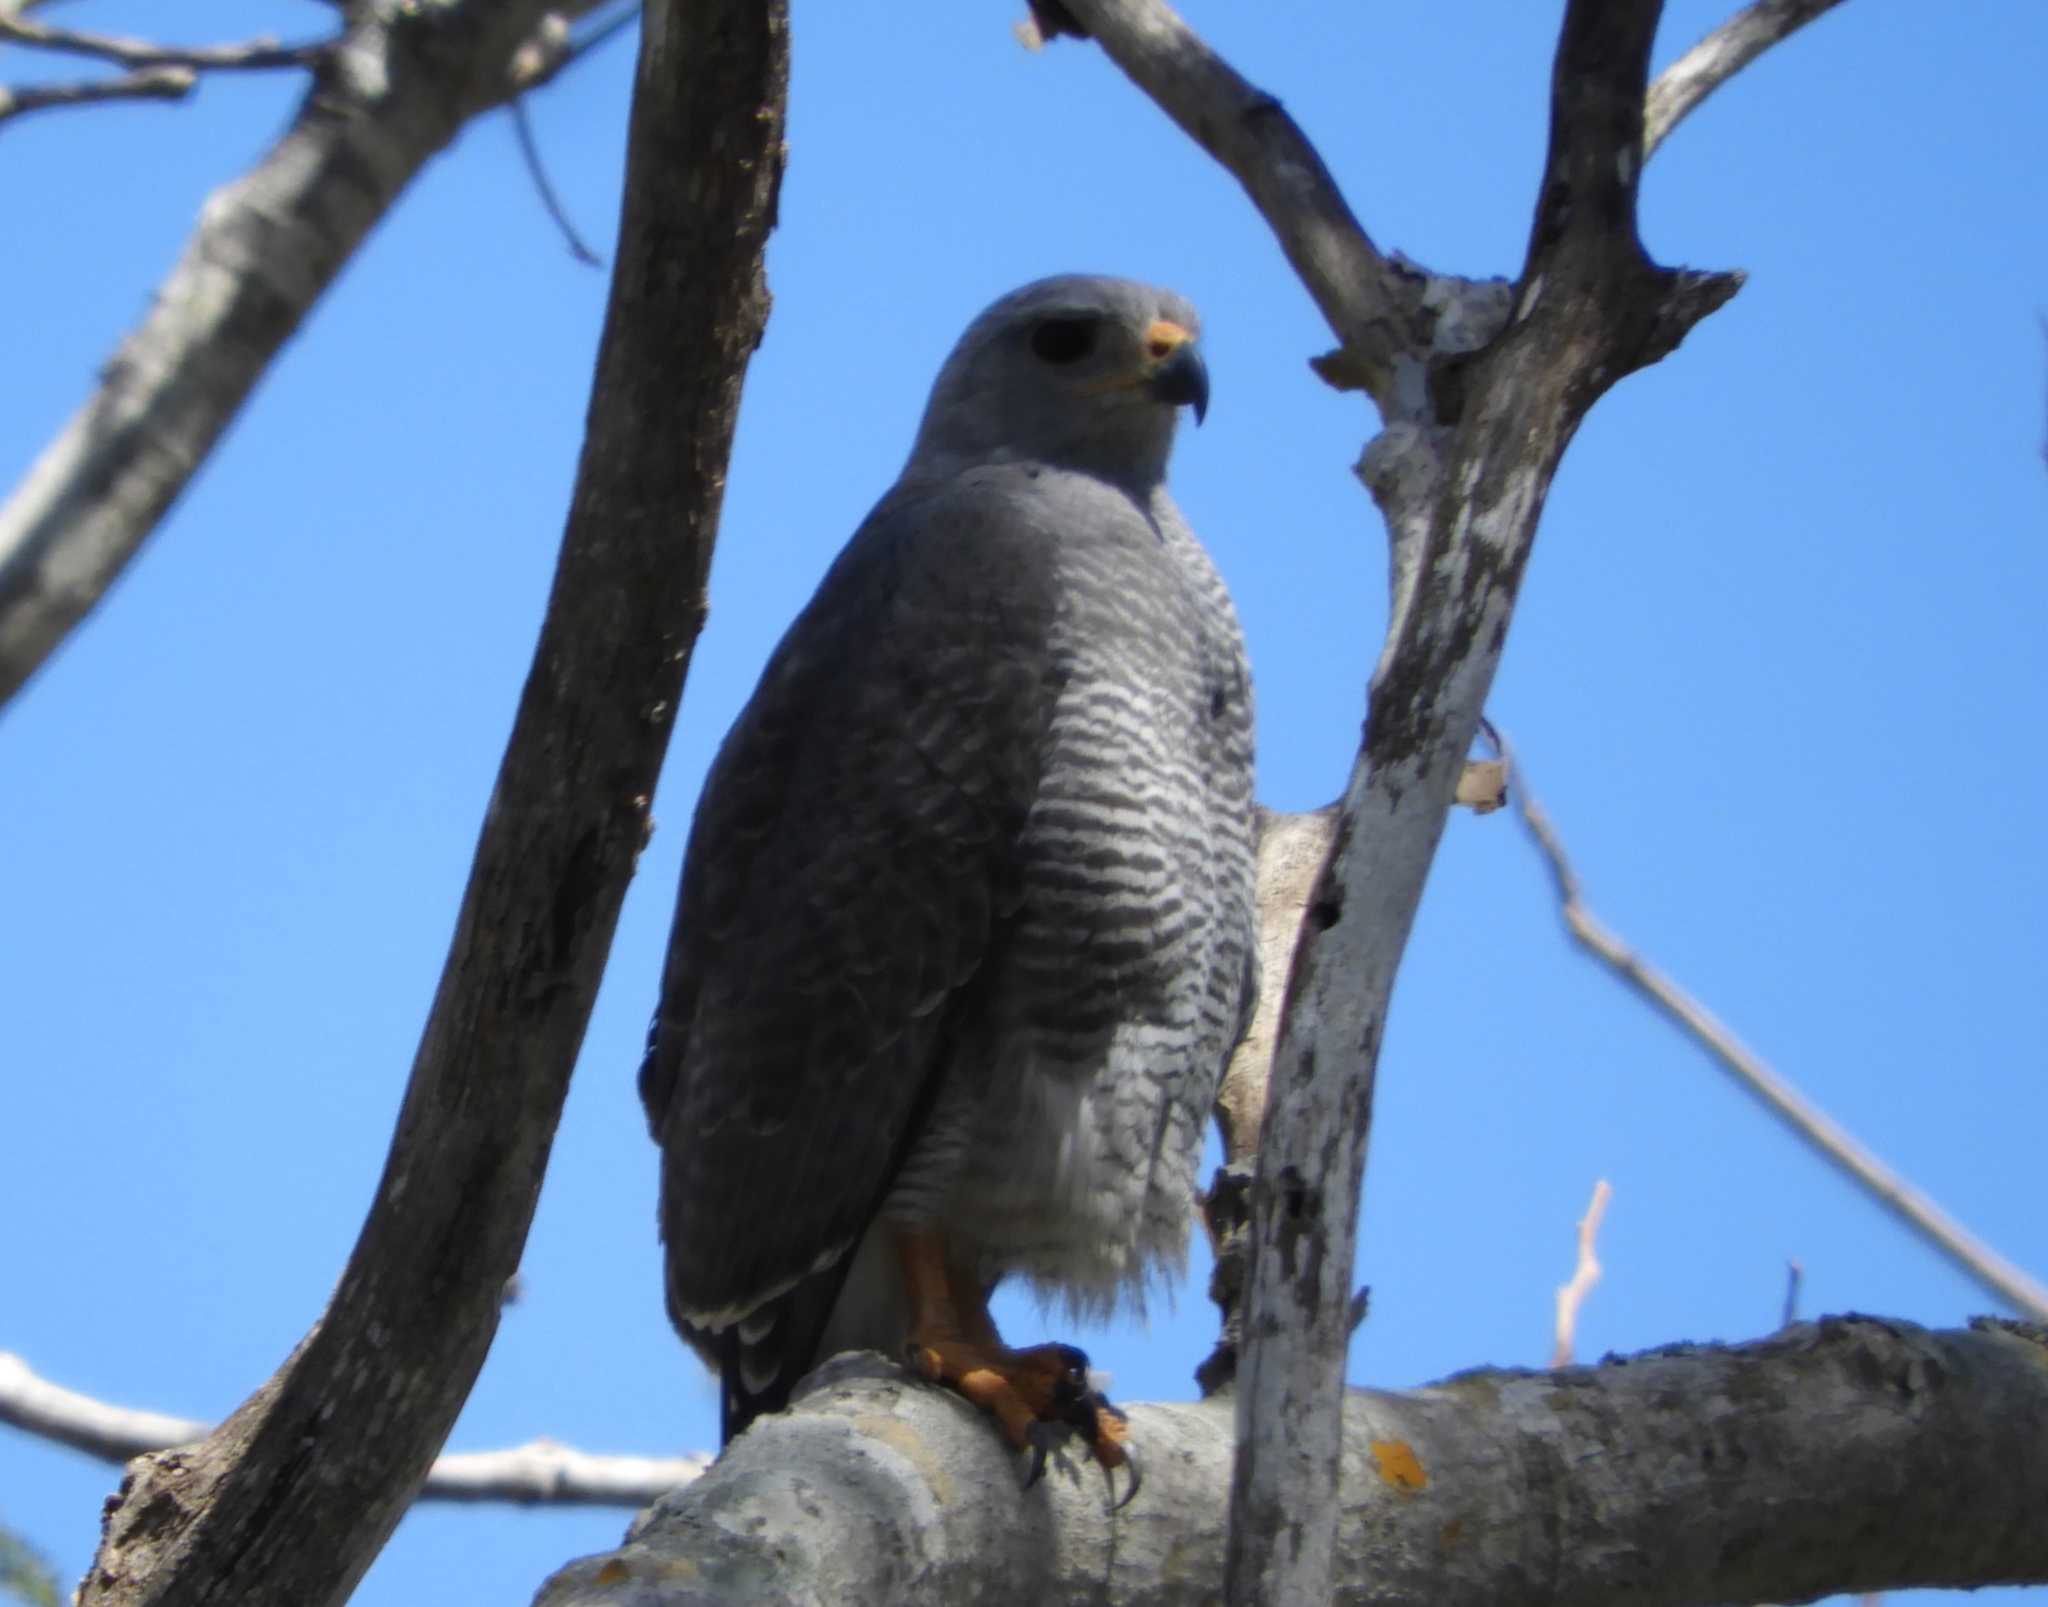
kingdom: Animalia
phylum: Chordata
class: Aves
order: Accipitriformes
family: Accipitridae
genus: Buteo
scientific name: Buteo nitidus
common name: Grey-lined hawk
